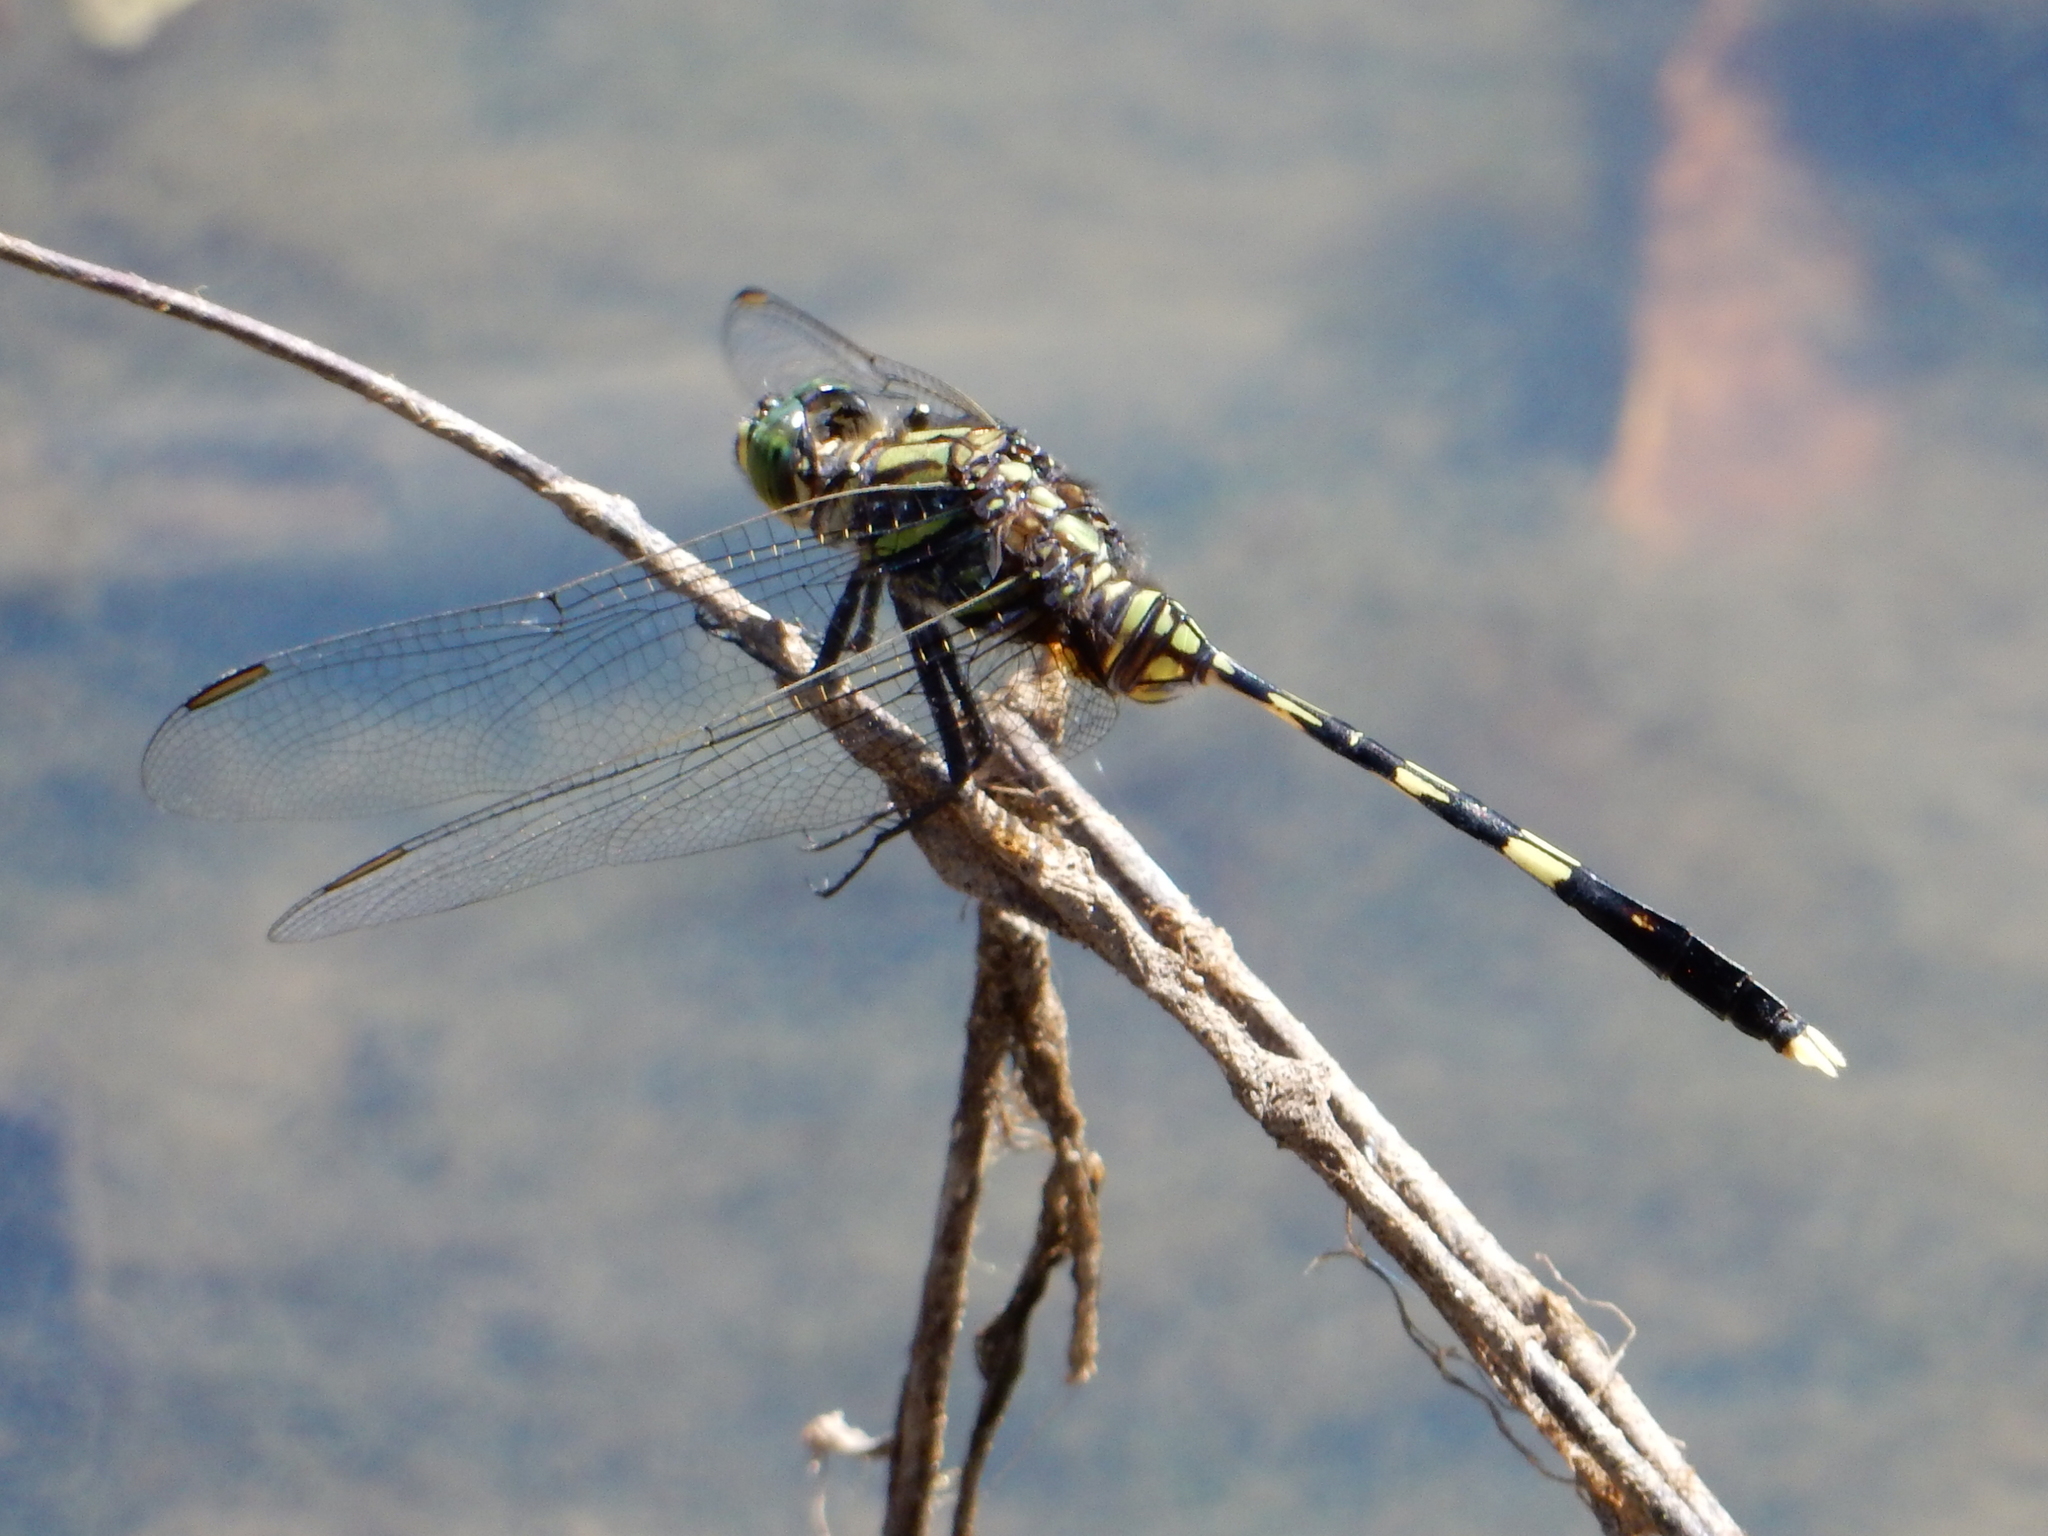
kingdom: Animalia
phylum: Arthropoda
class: Insecta
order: Odonata
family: Libellulidae
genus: Orthetrum
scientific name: Orthetrum serapia
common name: Green skimmer
